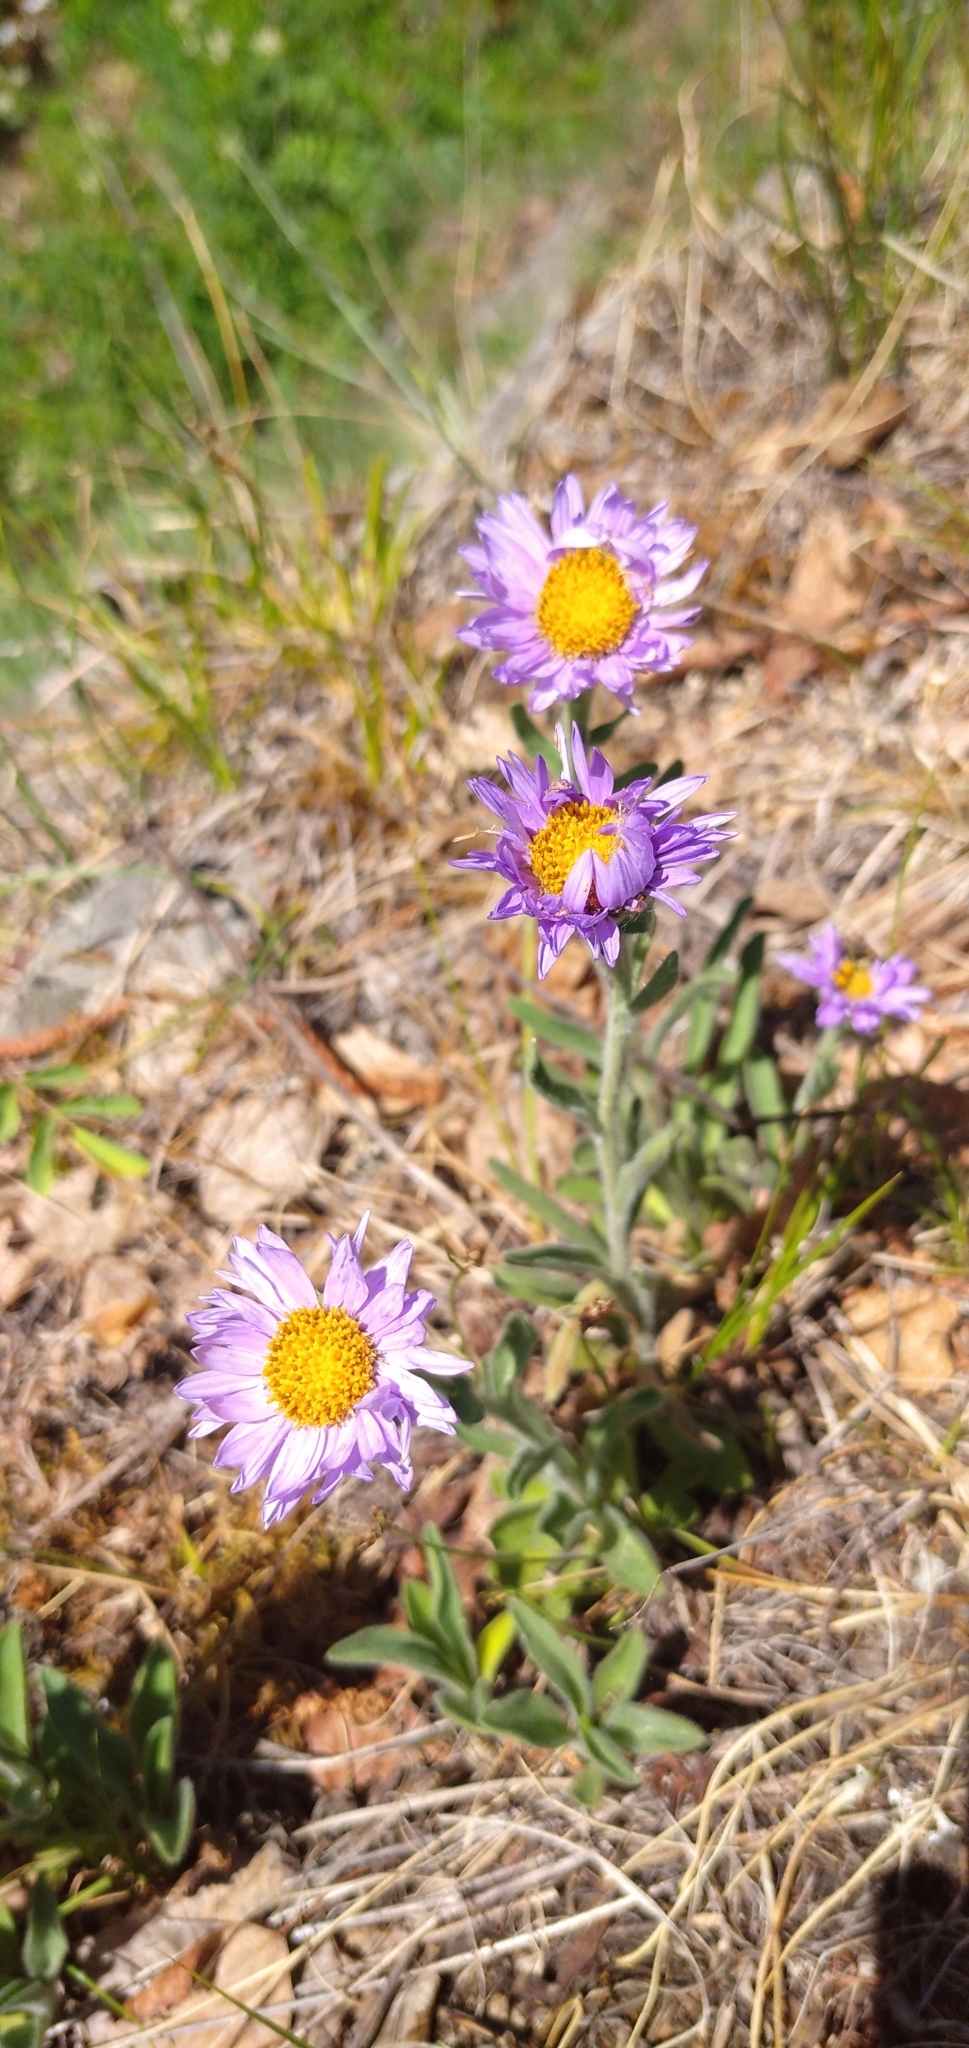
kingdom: Plantae
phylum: Tracheophyta
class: Magnoliopsida
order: Asterales
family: Asteraceae
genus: Aster
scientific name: Aster alpinus
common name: Alpine aster
